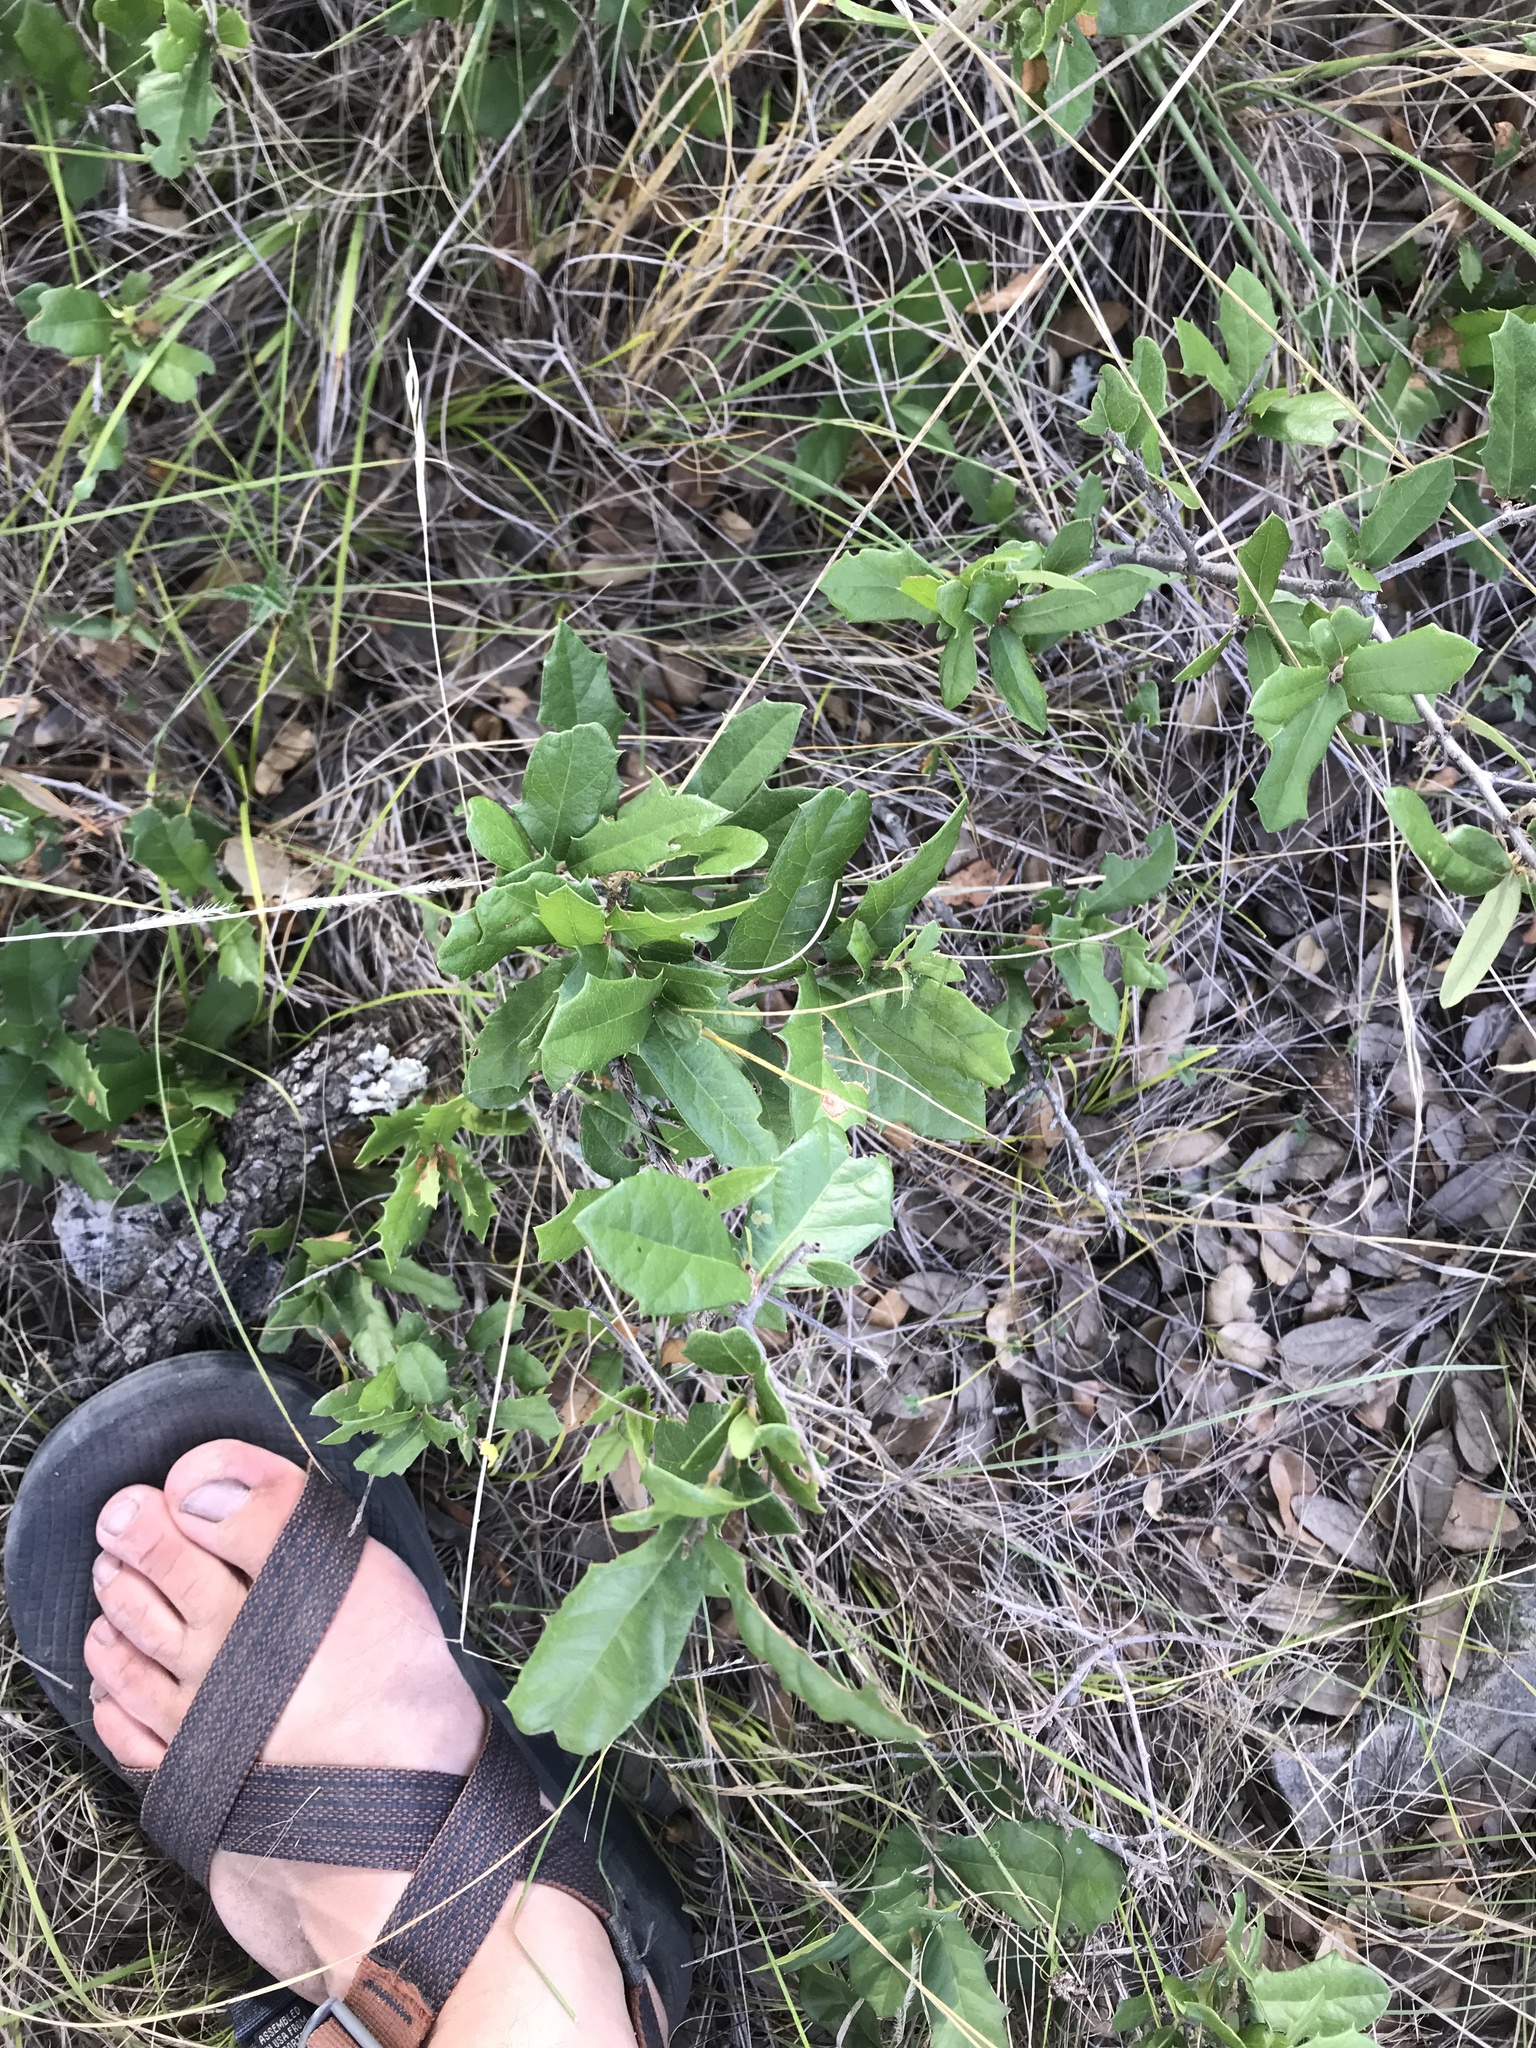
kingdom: Plantae
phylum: Tracheophyta
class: Magnoliopsida
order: Fagales
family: Fagaceae
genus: Quercus
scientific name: Quercus fusiformis
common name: Texas live oak
